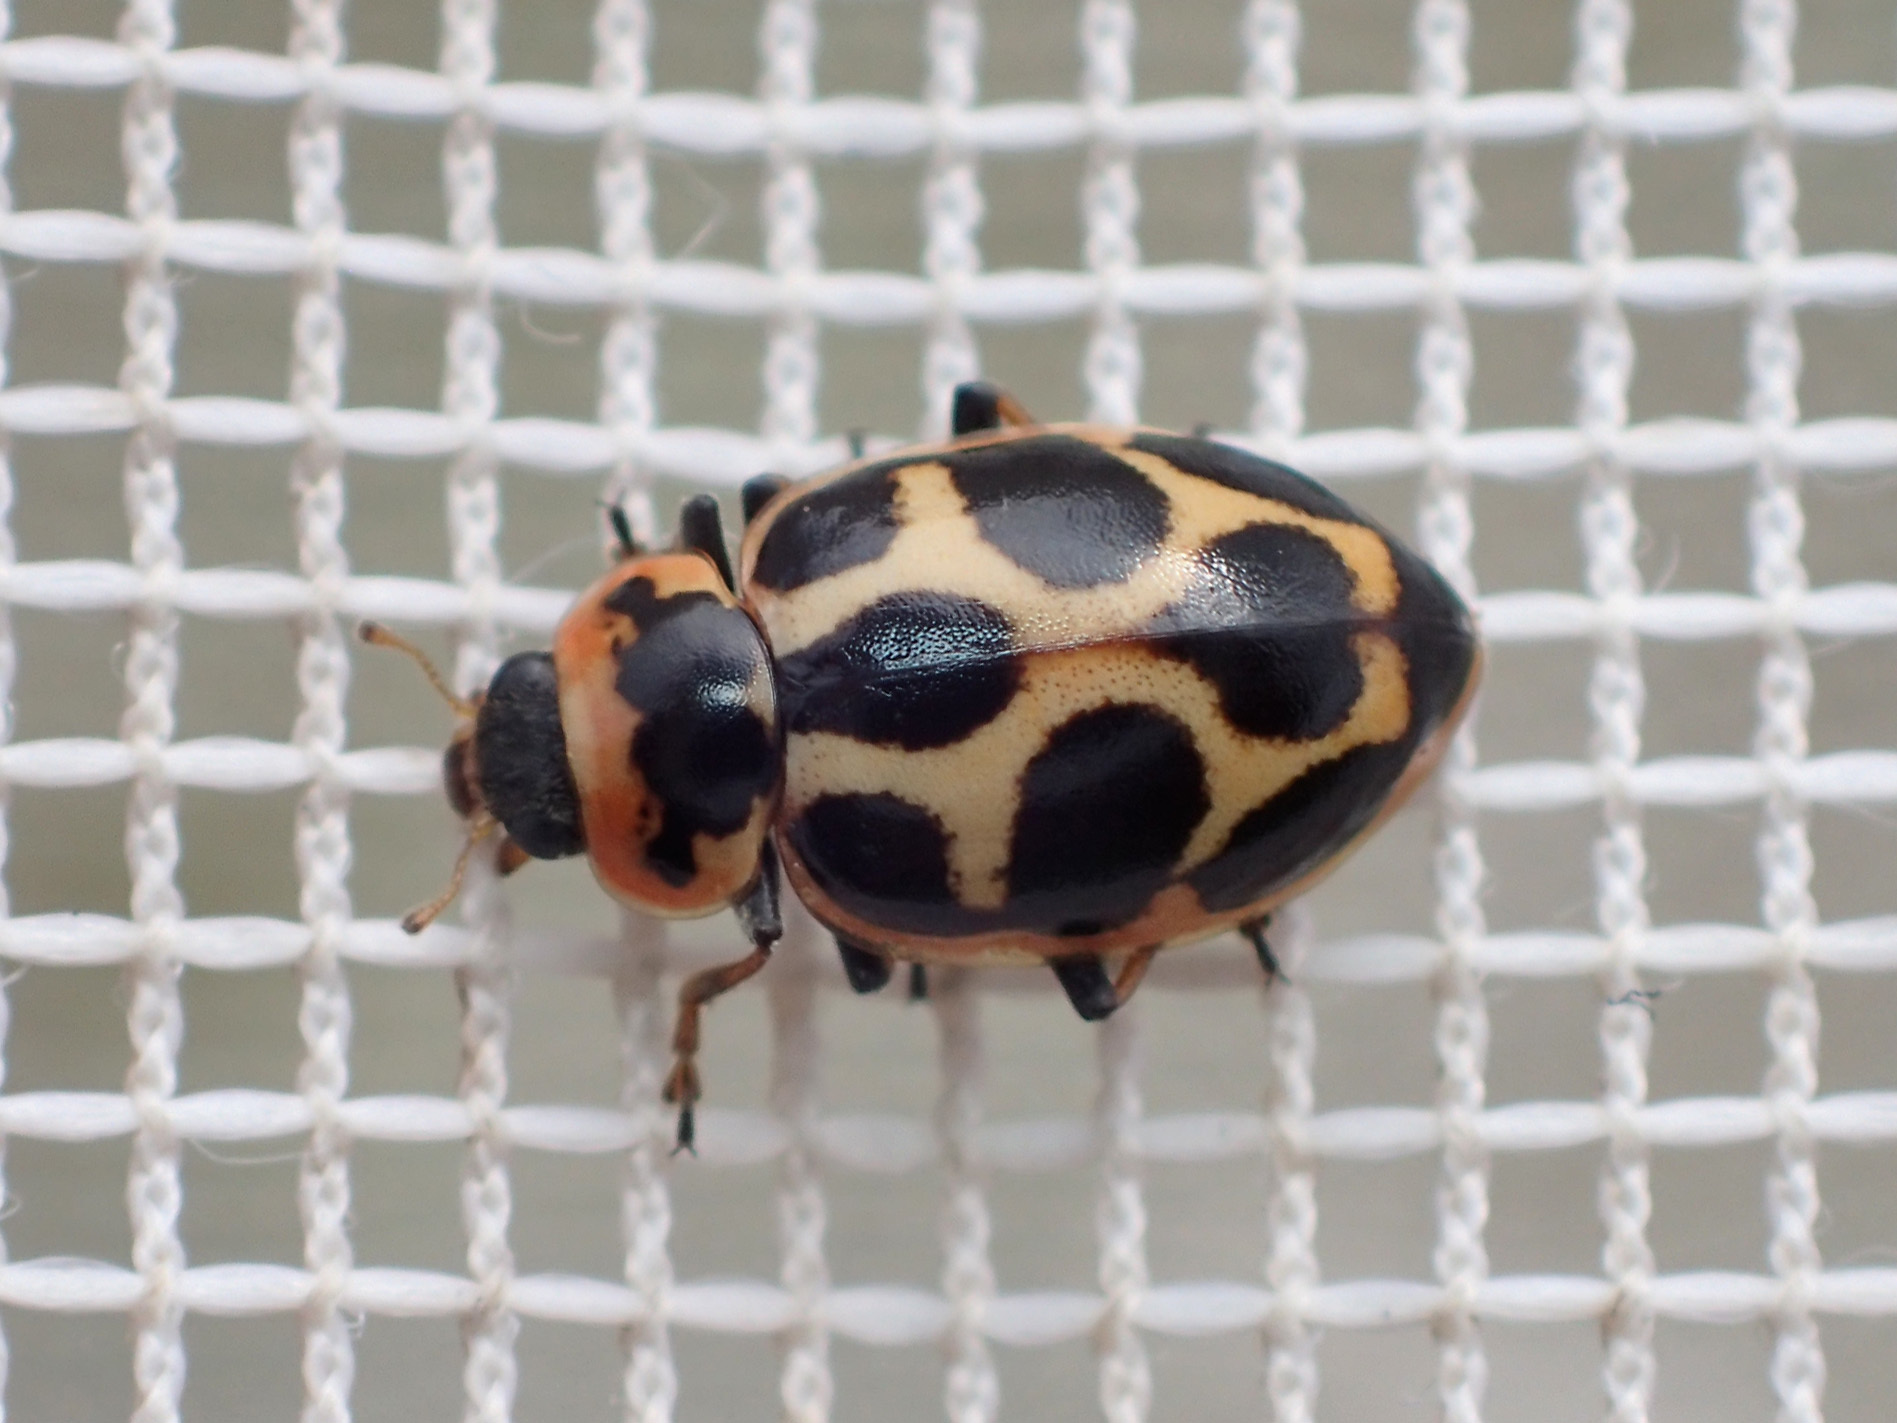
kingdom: Animalia
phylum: Arthropoda
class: Insecta
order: Coleoptera
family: Coccinellidae
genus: Naemia
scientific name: Naemia seriata
